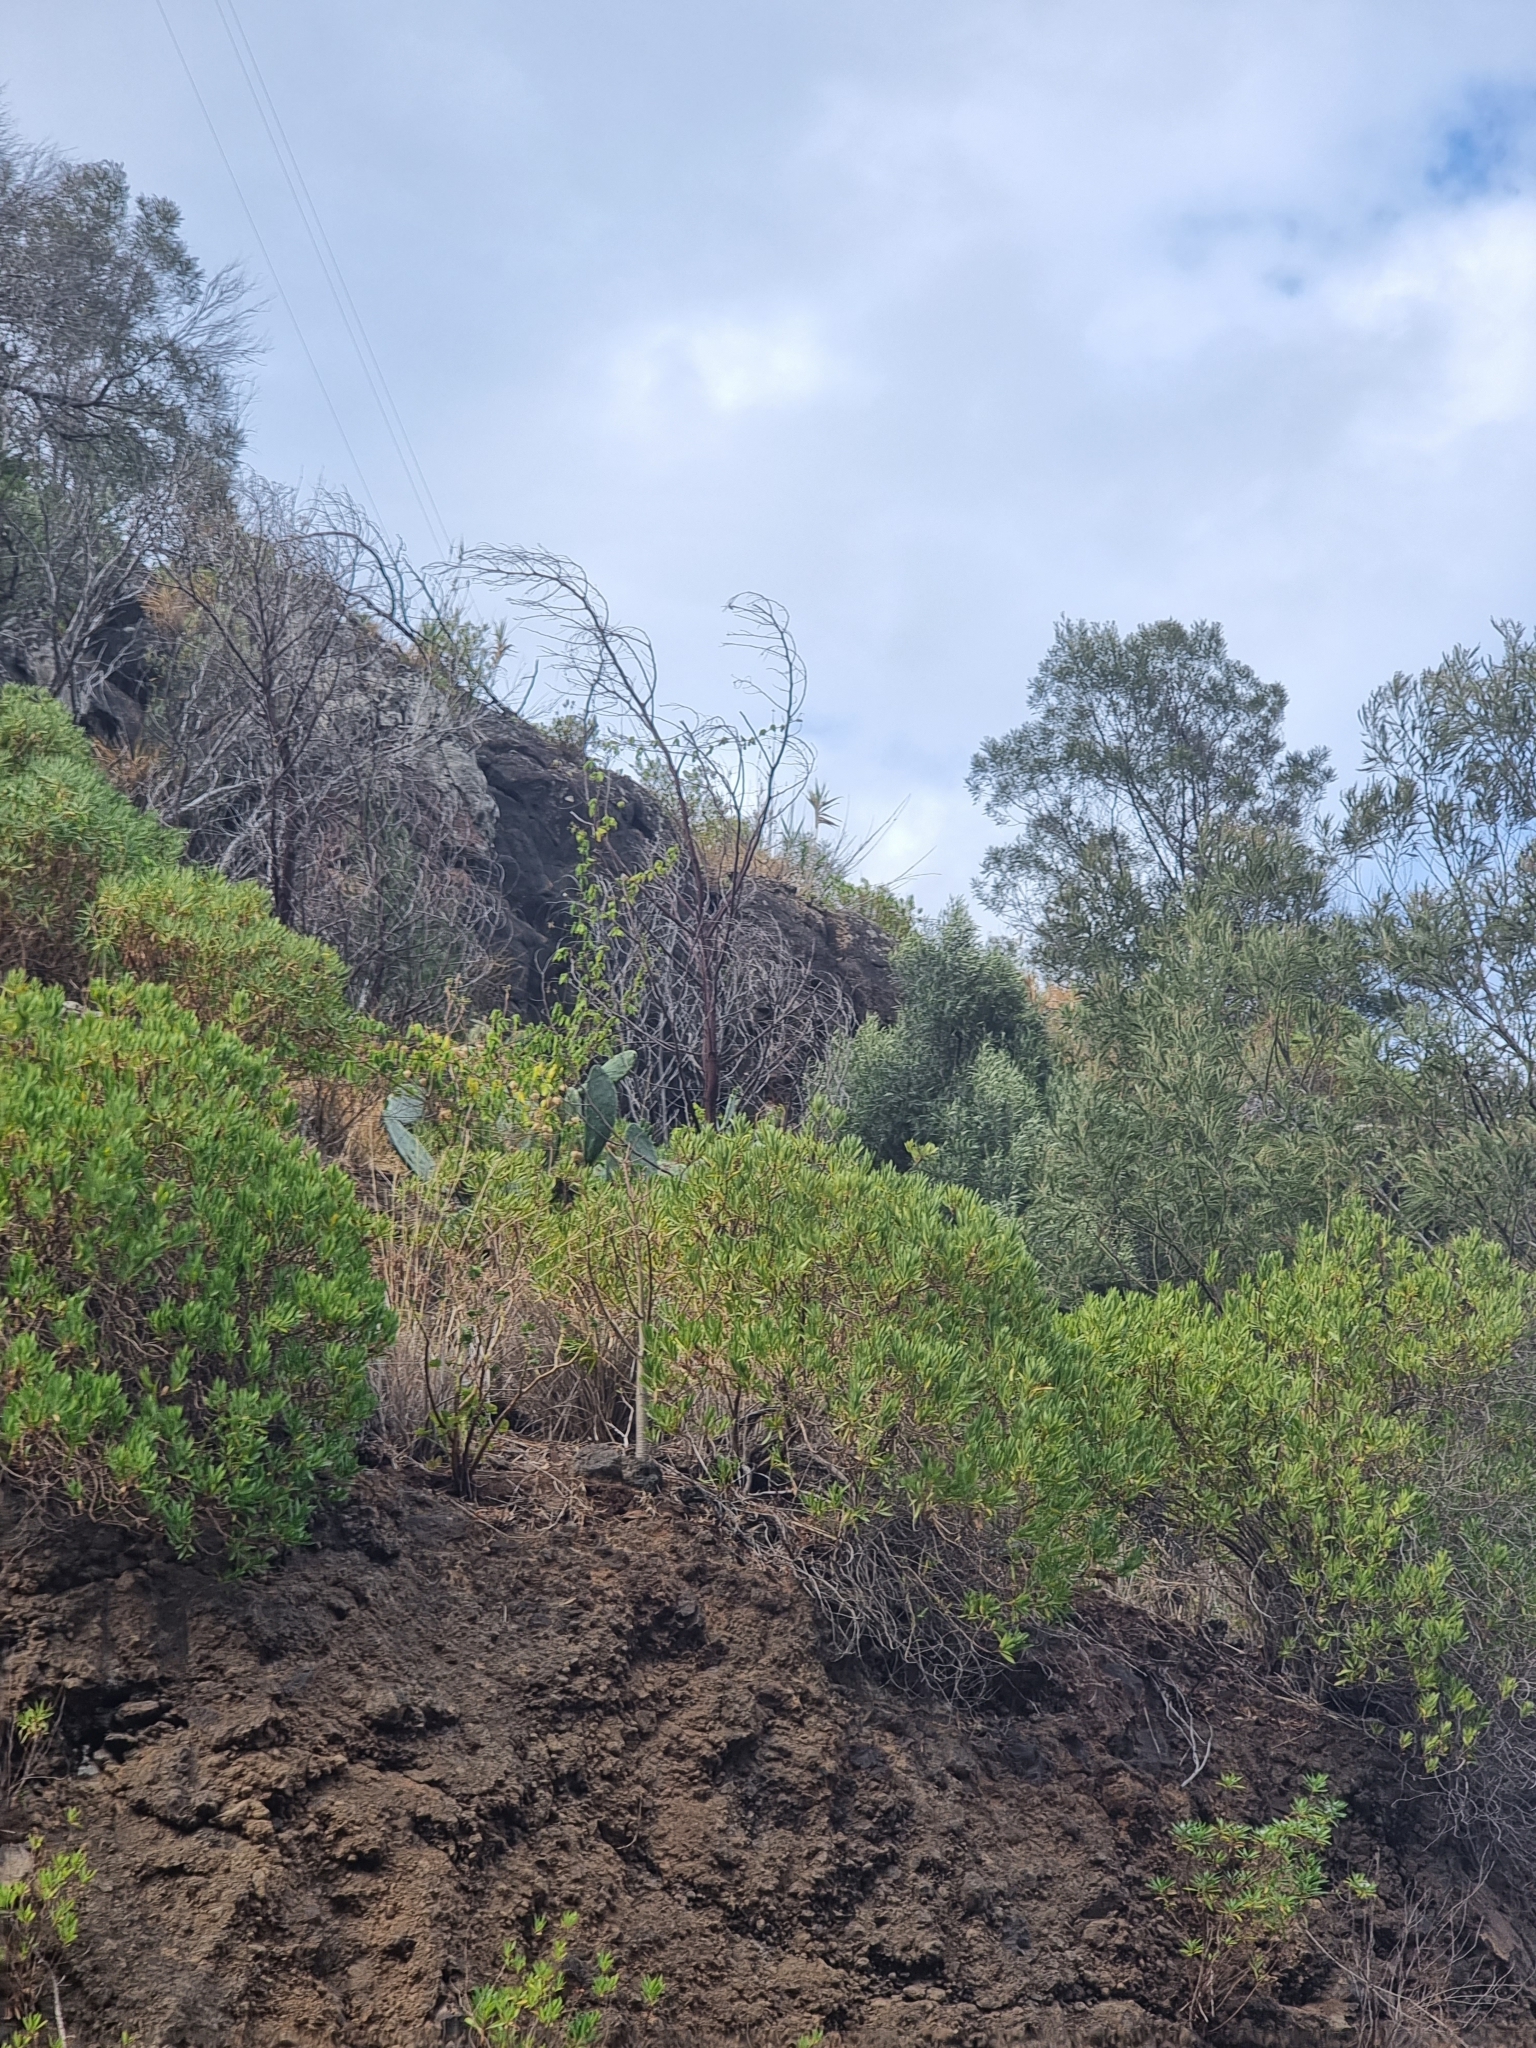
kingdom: Plantae
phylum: Tracheophyta
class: Magnoliopsida
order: Lamiales
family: Plantaginaceae
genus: Globularia
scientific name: Globularia salicina
